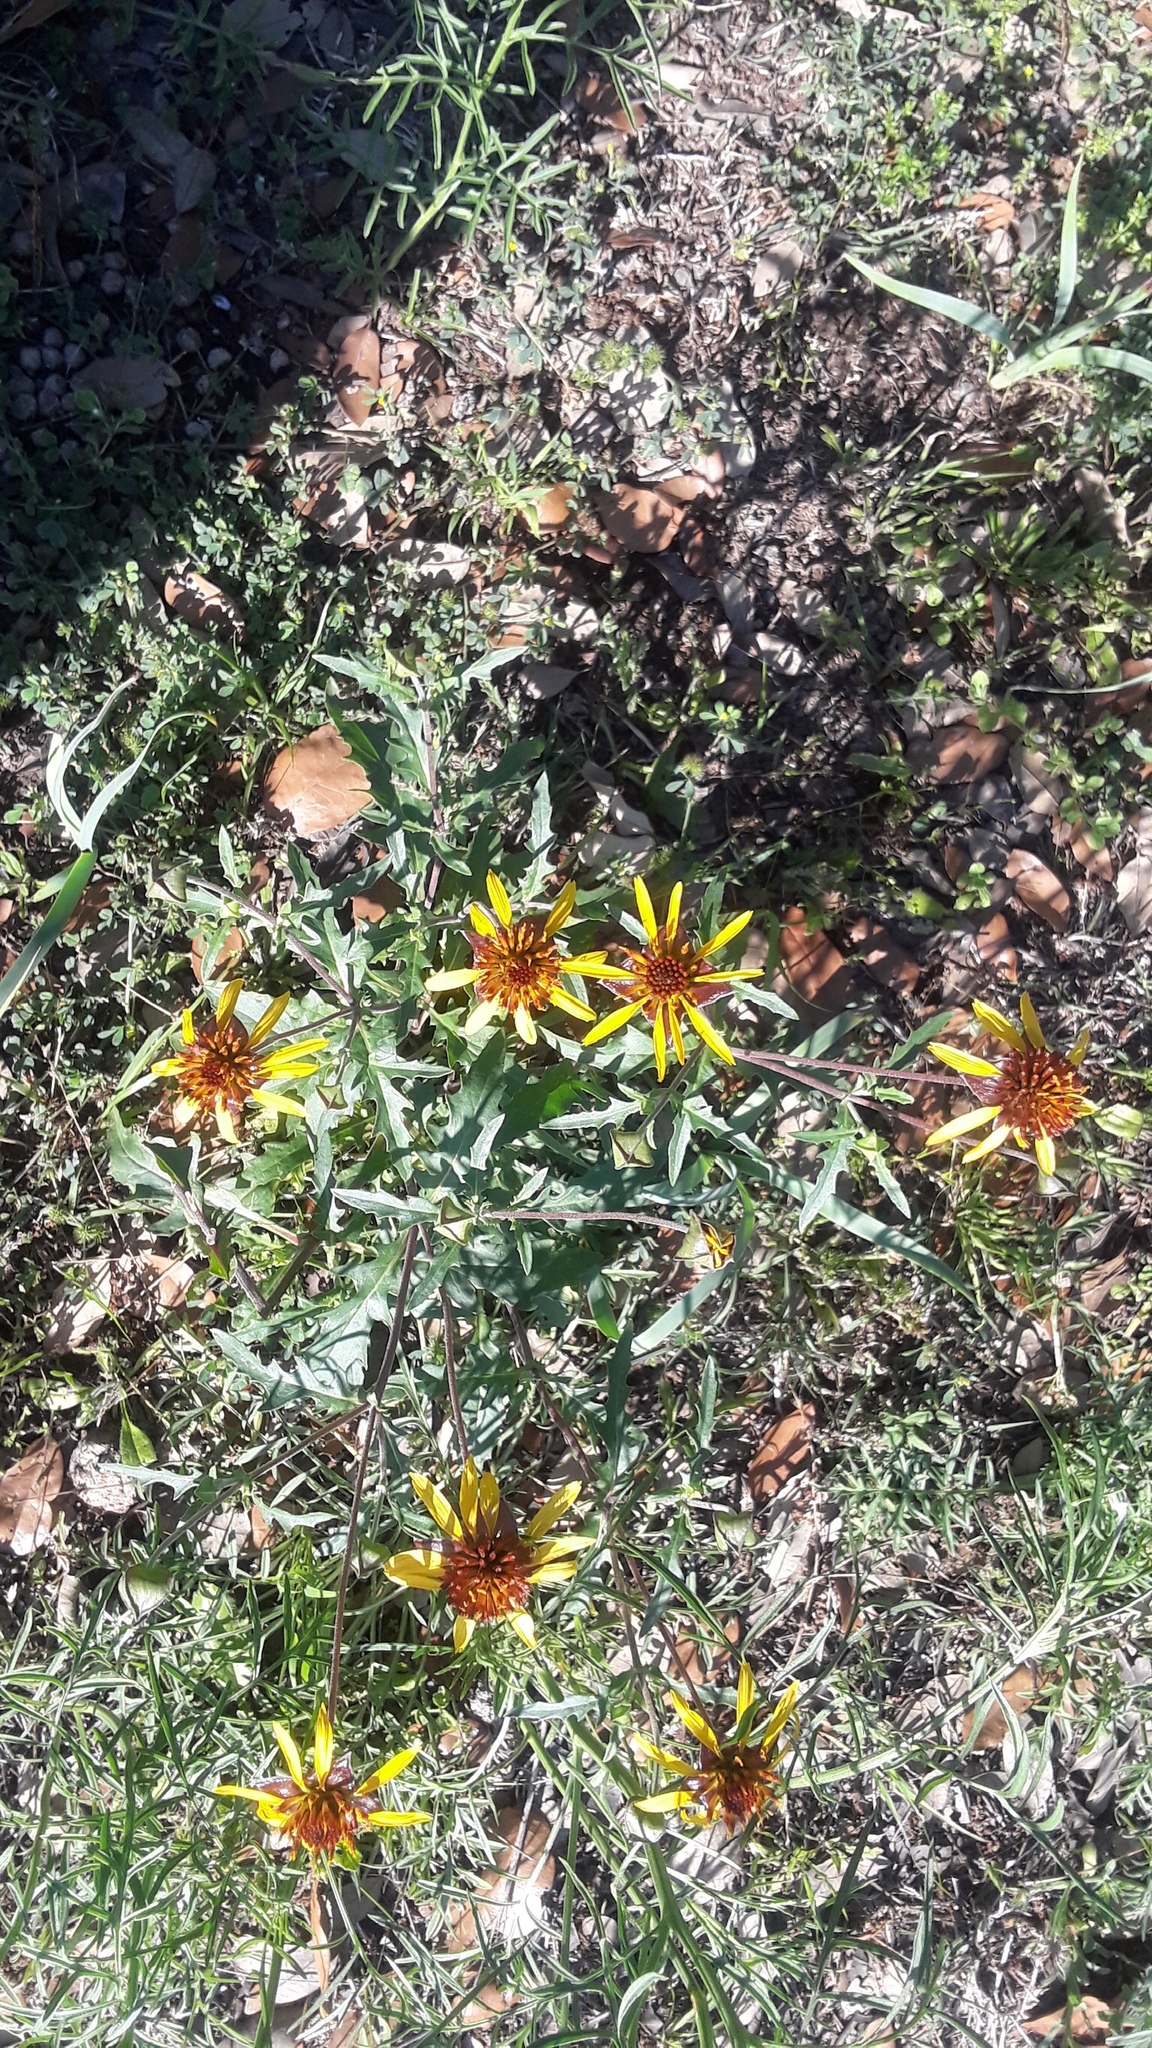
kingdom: Plantae
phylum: Tracheophyta
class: Magnoliopsida
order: Asterales
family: Asteraceae
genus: Tetragonotheca
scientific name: Tetragonotheca texana
